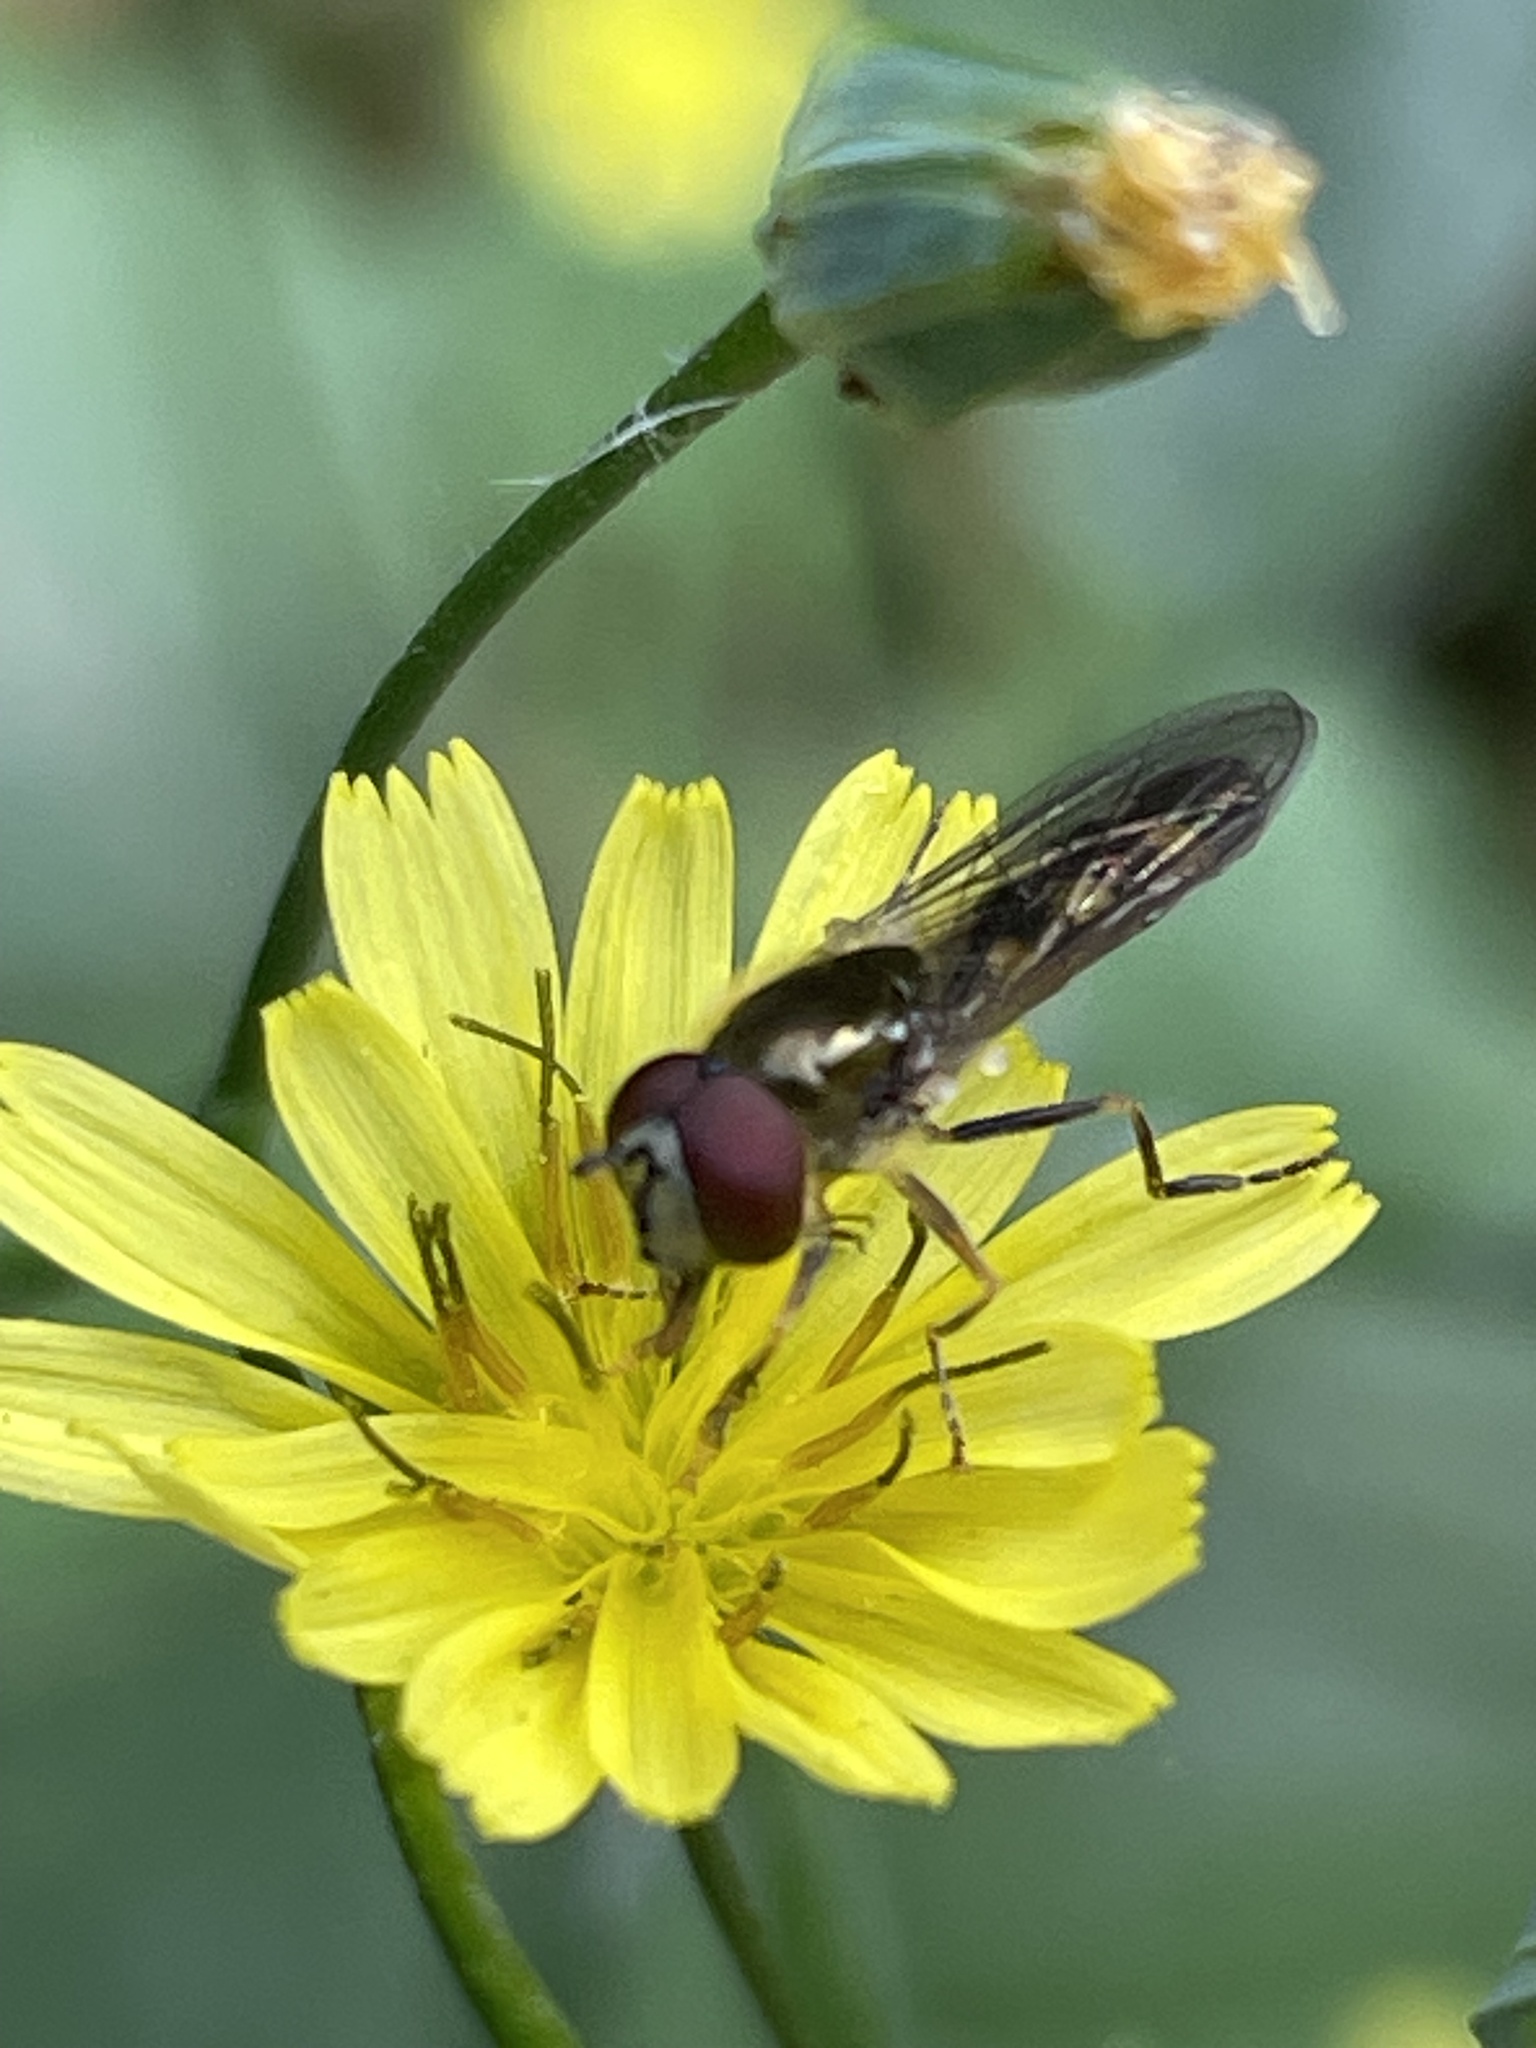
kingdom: Animalia
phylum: Arthropoda
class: Insecta
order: Diptera
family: Syrphidae
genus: Platycheirus
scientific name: Platycheirus scutatus
